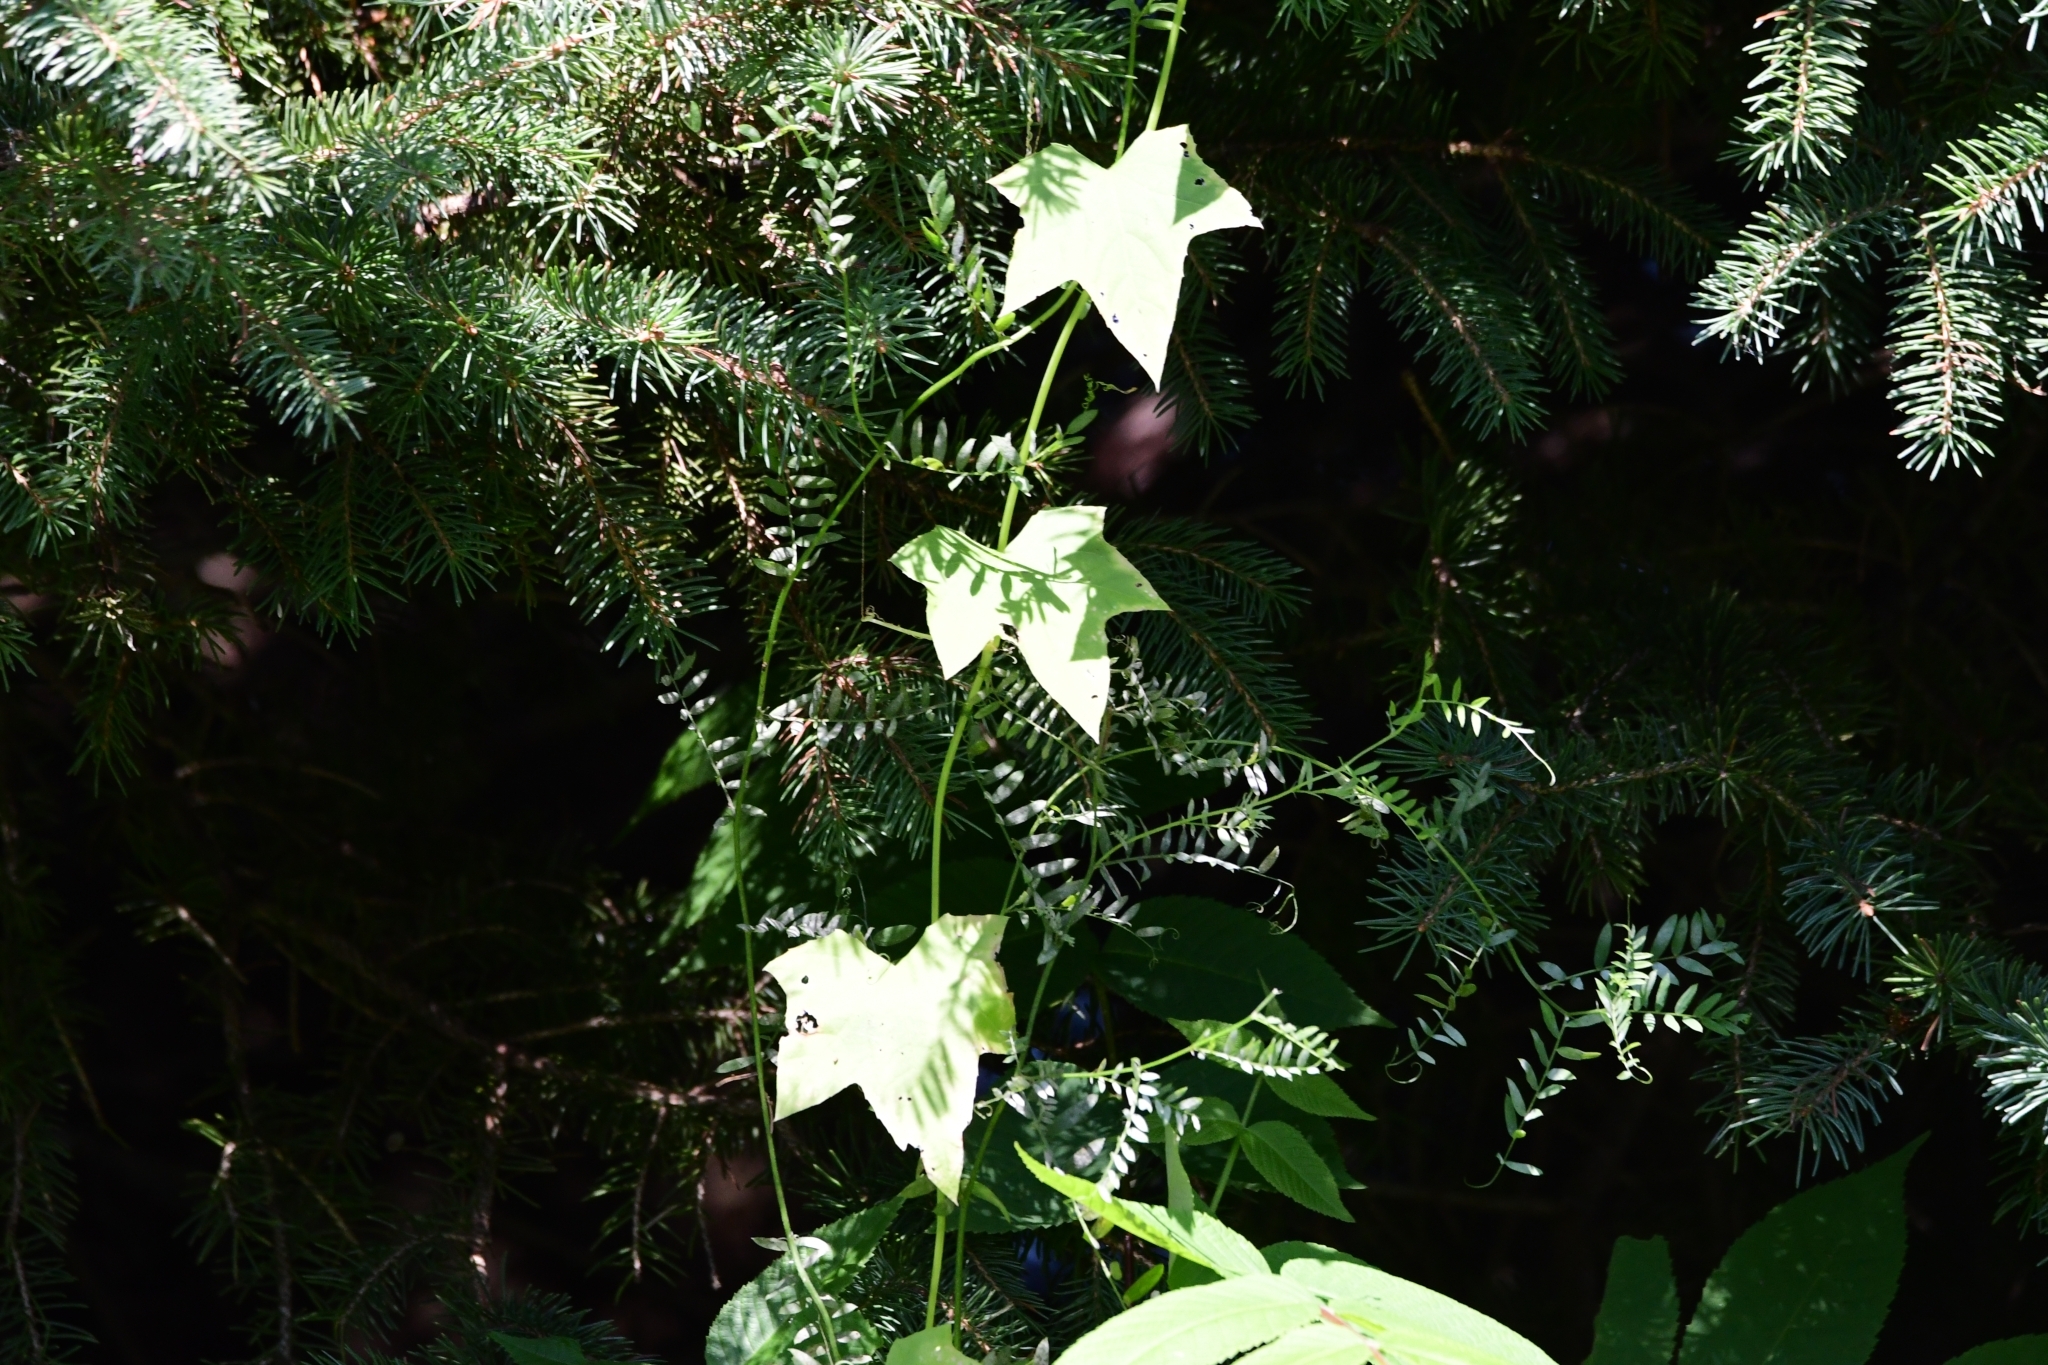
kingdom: Plantae
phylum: Tracheophyta
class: Magnoliopsida
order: Cucurbitales
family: Cucurbitaceae
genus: Echinocystis
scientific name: Echinocystis lobata
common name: Wild cucumber
